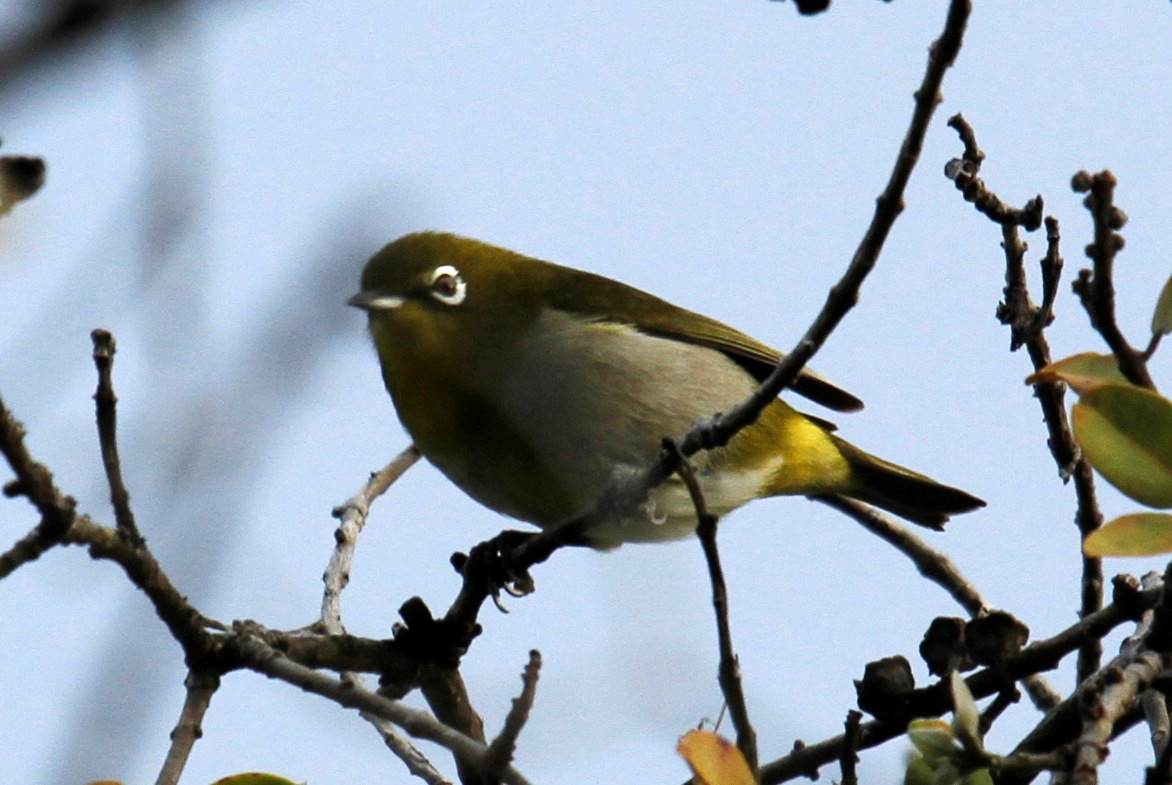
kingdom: Animalia
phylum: Chordata
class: Aves
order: Passeriformes
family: Zosteropidae
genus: Zosterops
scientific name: Zosterops japonicus
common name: Japanese white-eye
